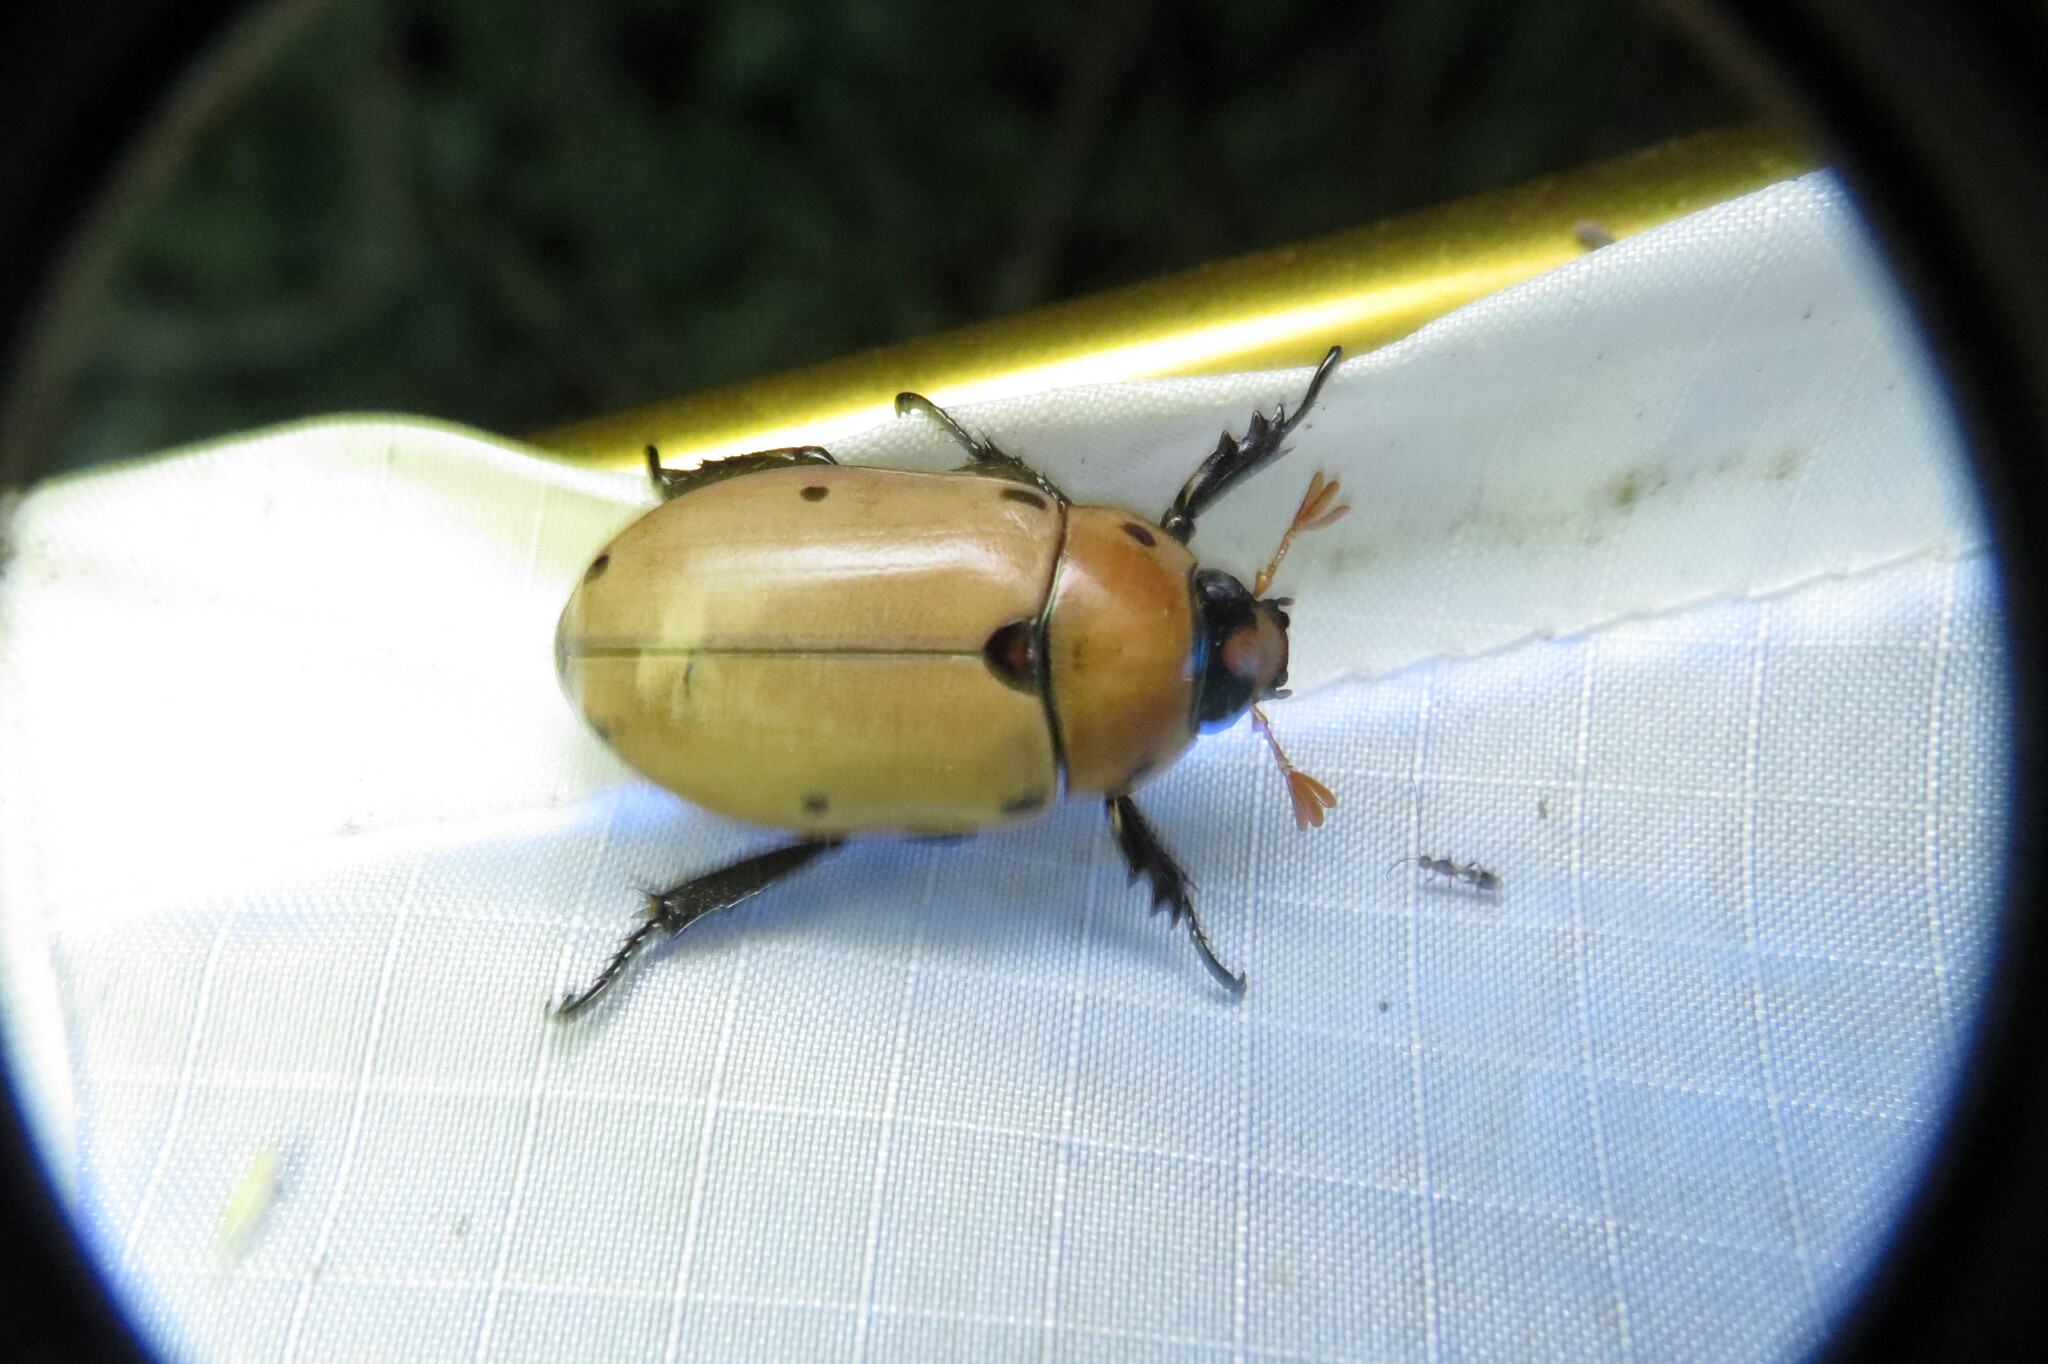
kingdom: Animalia
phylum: Arthropoda
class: Insecta
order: Coleoptera
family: Scarabaeidae
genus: Pelidnota
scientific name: Pelidnota punctata
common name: Grapevine beetle
